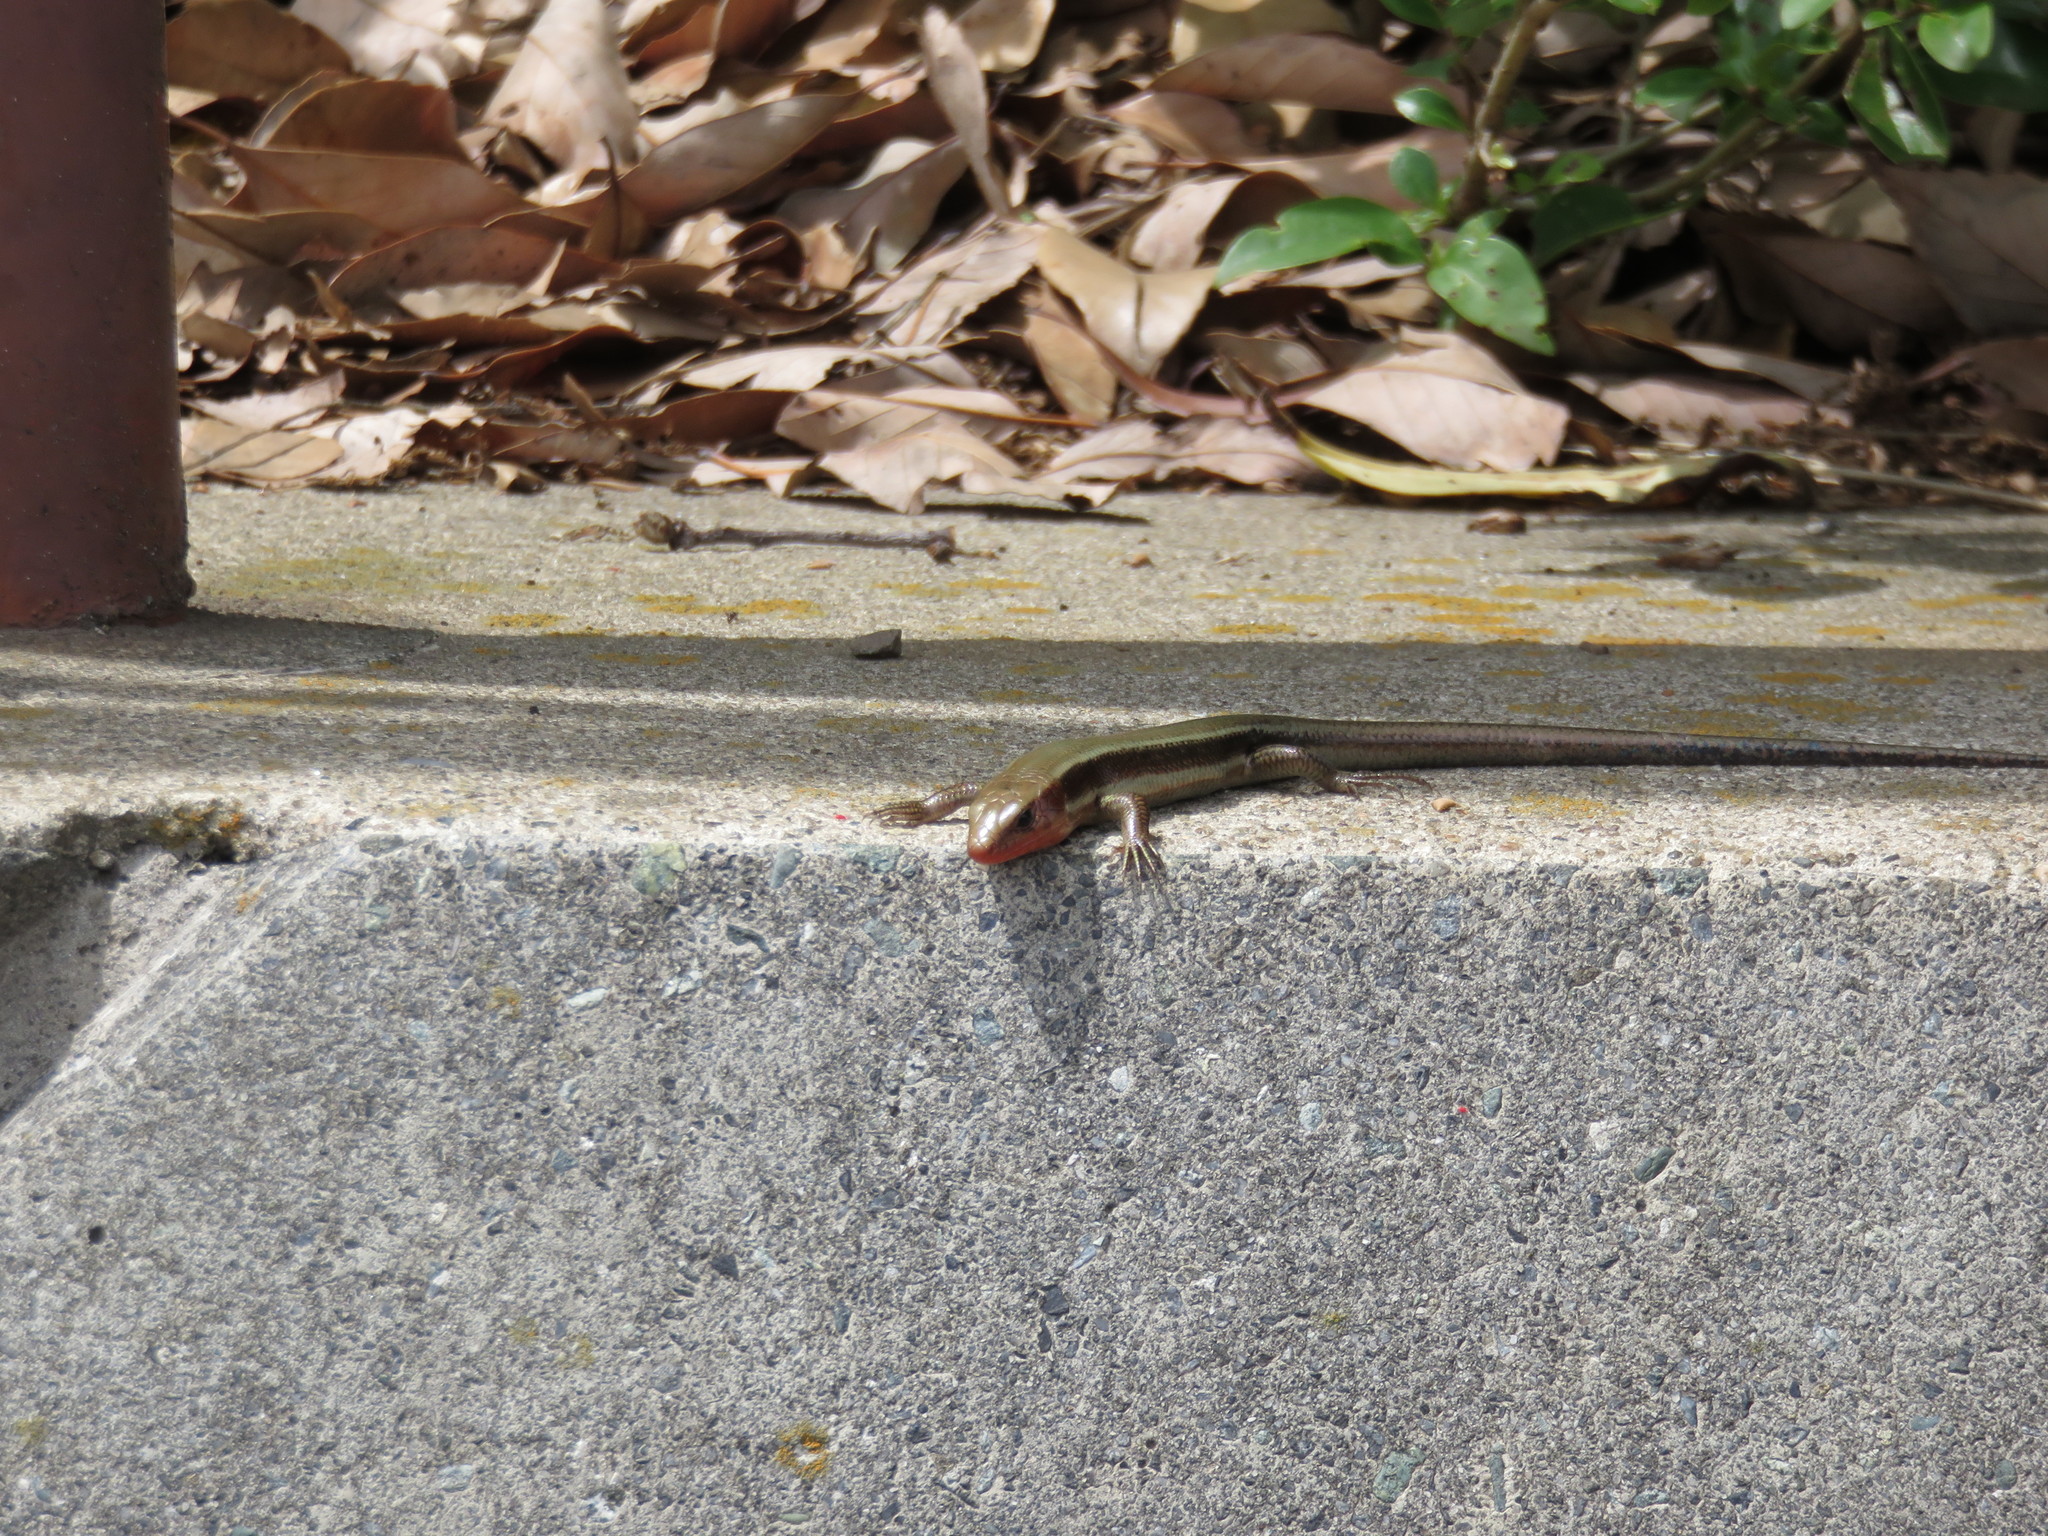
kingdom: Animalia
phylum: Chordata
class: Squamata
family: Scincidae
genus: Plestiodon
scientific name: Plestiodon finitimus
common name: Far eastern skink
